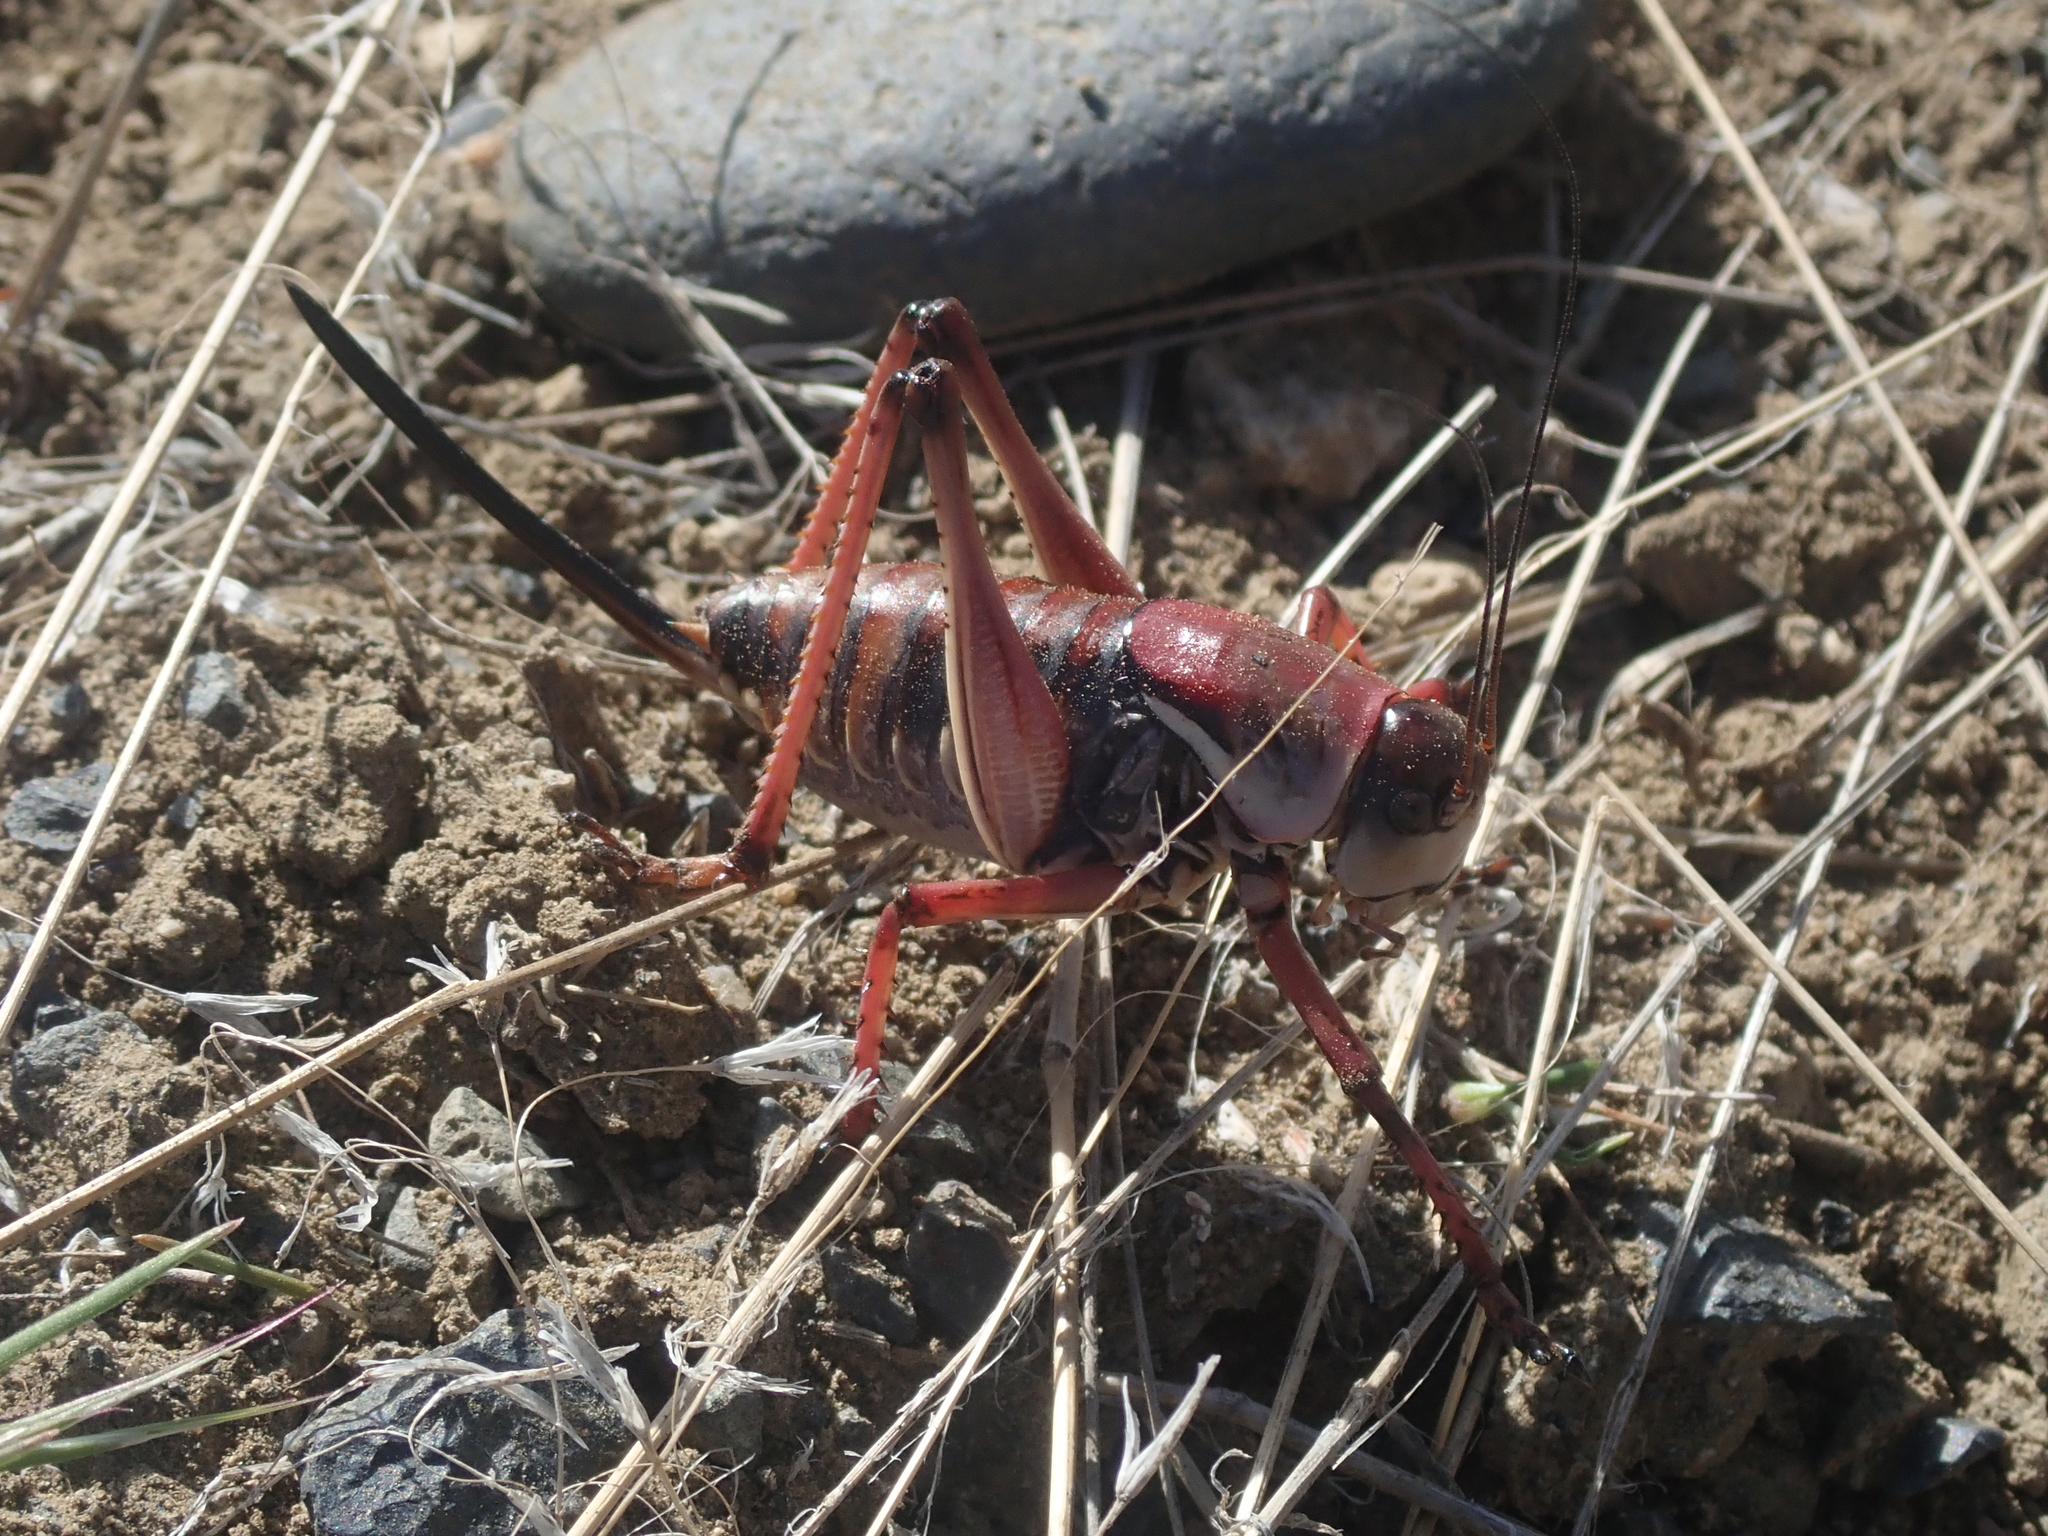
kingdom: Animalia
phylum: Arthropoda
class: Insecta
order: Orthoptera
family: Tettigoniidae
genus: Anabrus
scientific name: Anabrus simplex
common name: Mormon cricket
